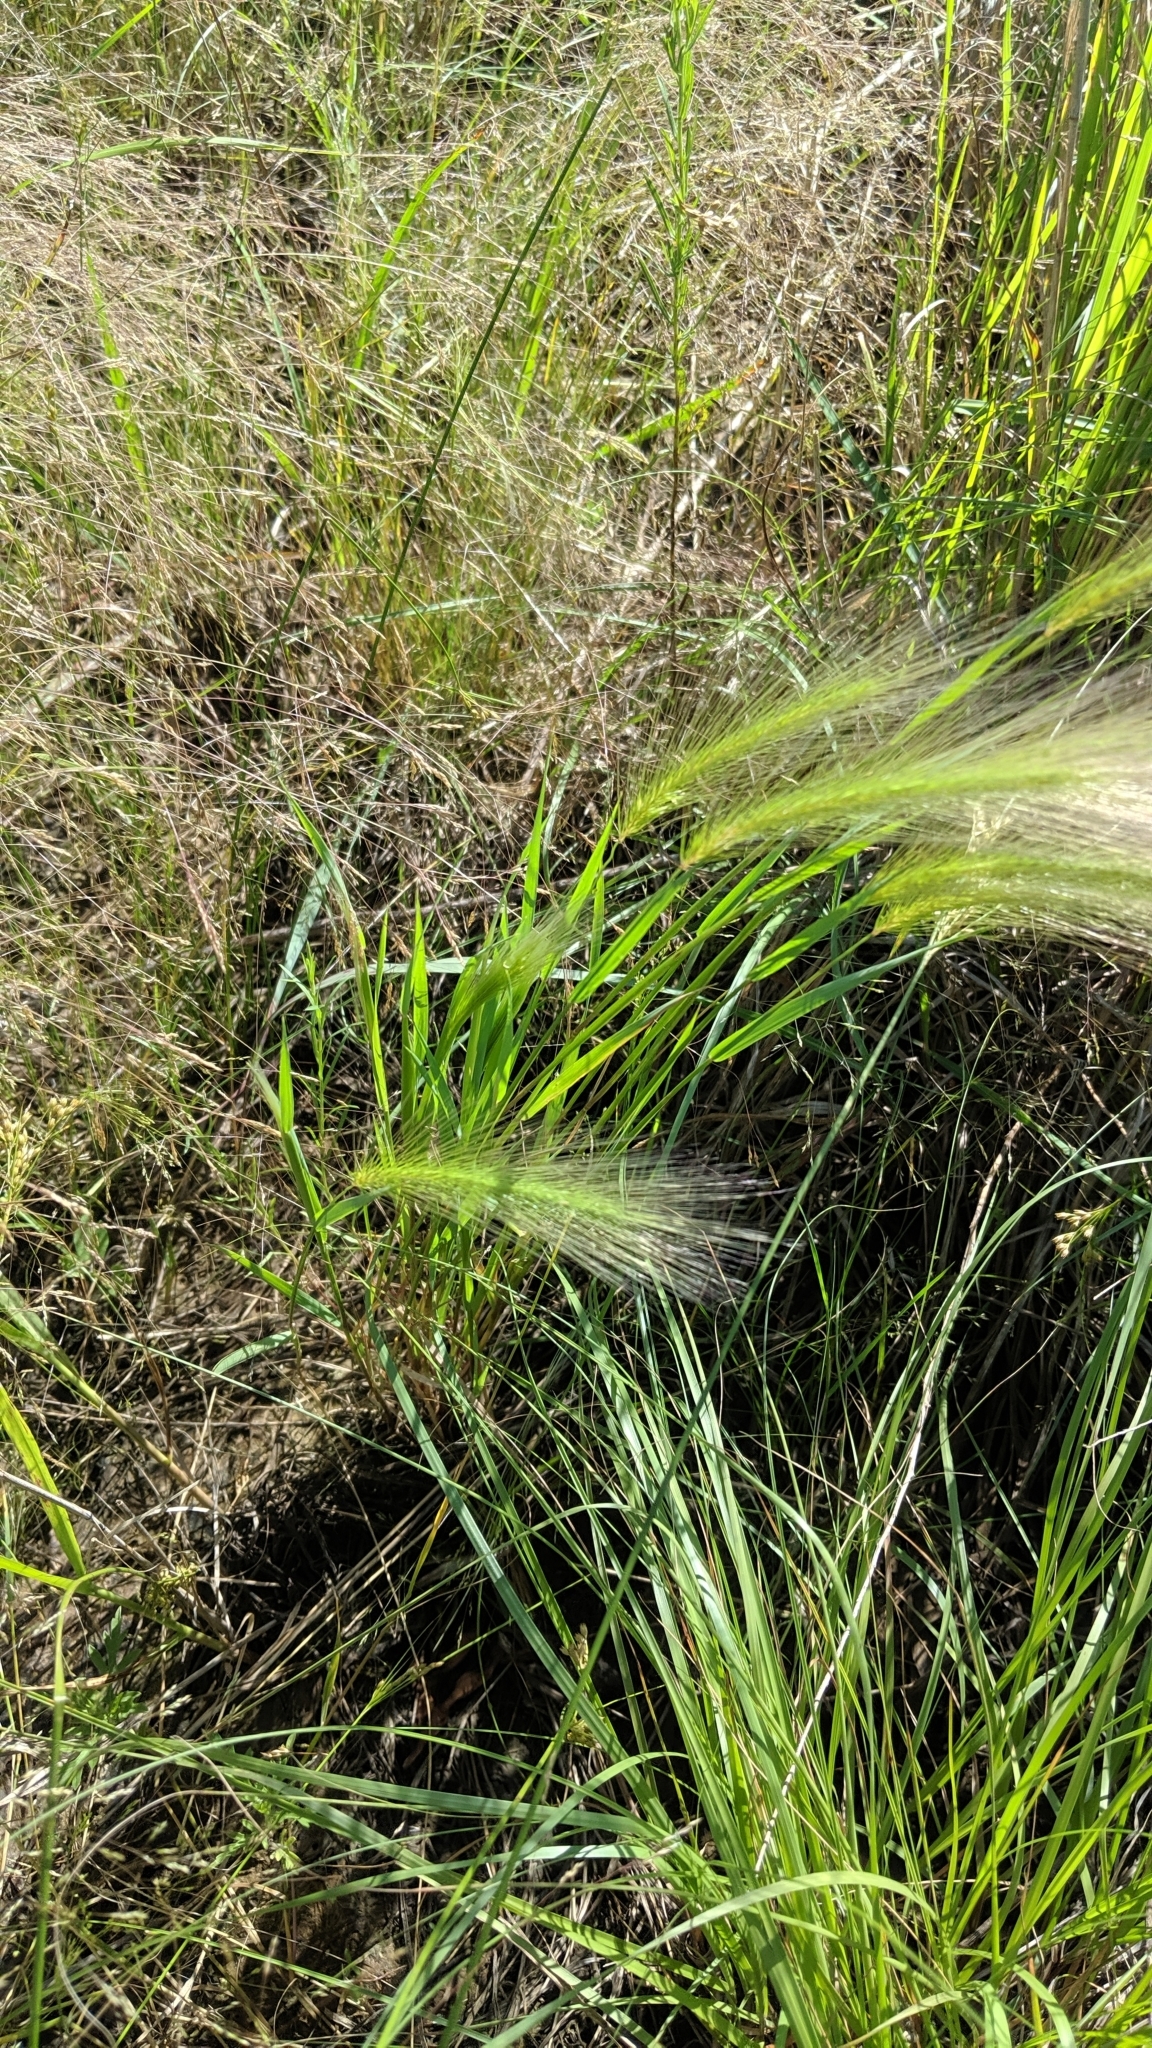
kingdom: Plantae
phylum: Tracheophyta
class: Liliopsida
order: Poales
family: Poaceae
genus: Hordeum
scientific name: Hordeum jubatum
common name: Foxtail barley
